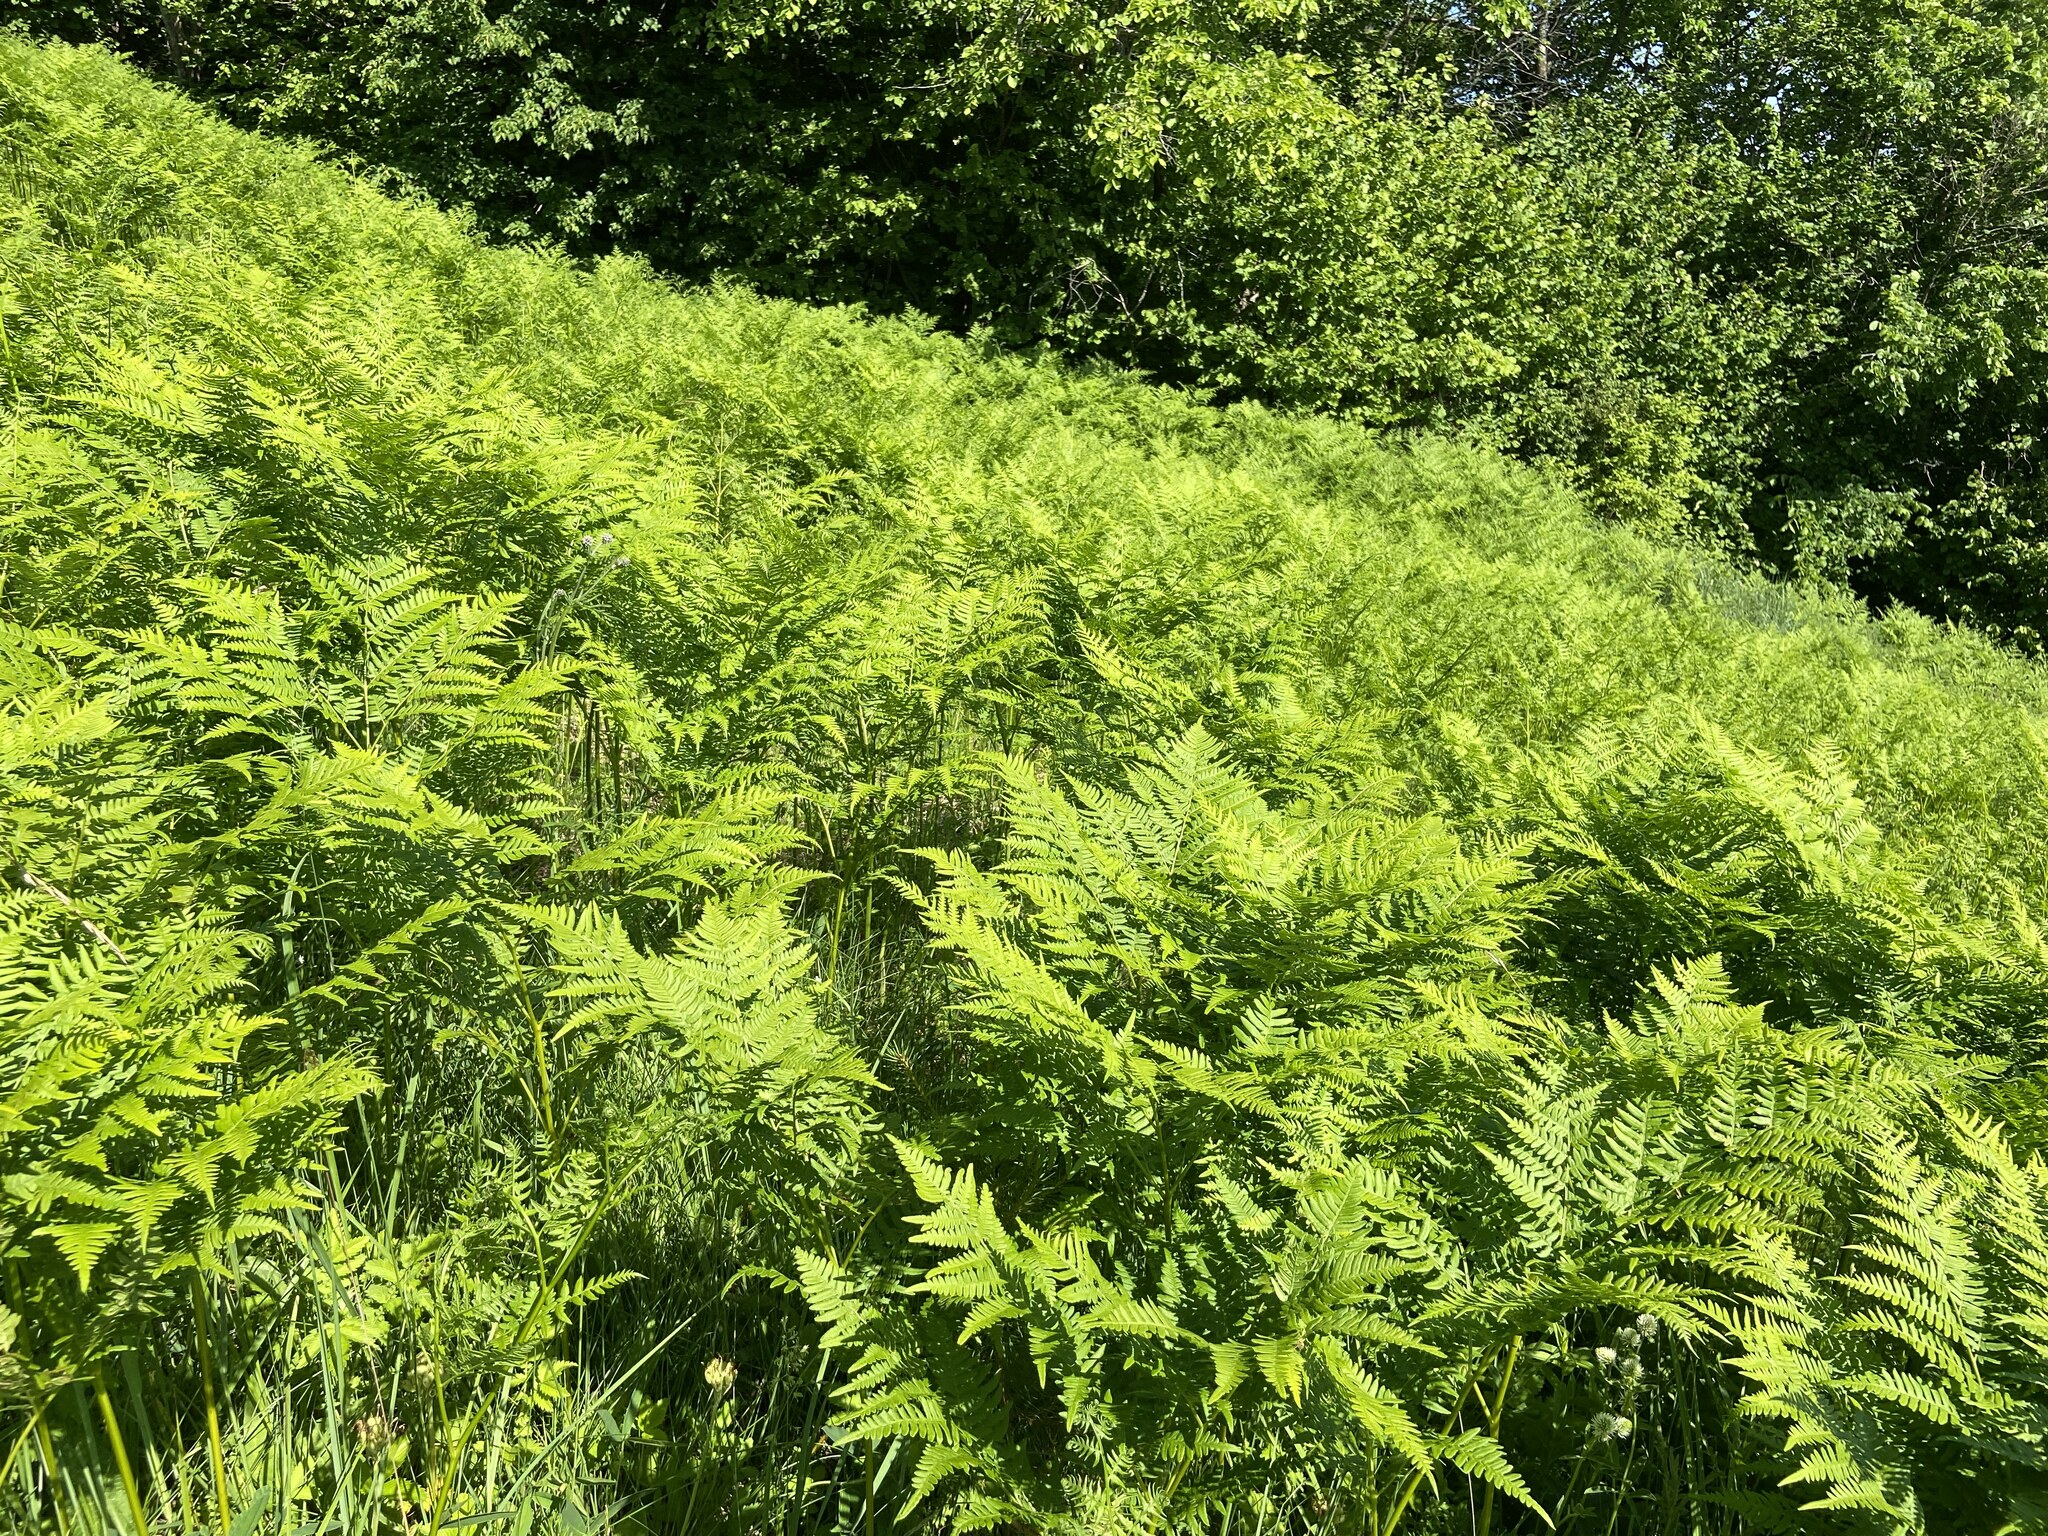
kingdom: Plantae
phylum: Tracheophyta
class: Polypodiopsida
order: Polypodiales
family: Dennstaedtiaceae
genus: Pteridium
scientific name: Pteridium aquilinum
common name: Bracken
